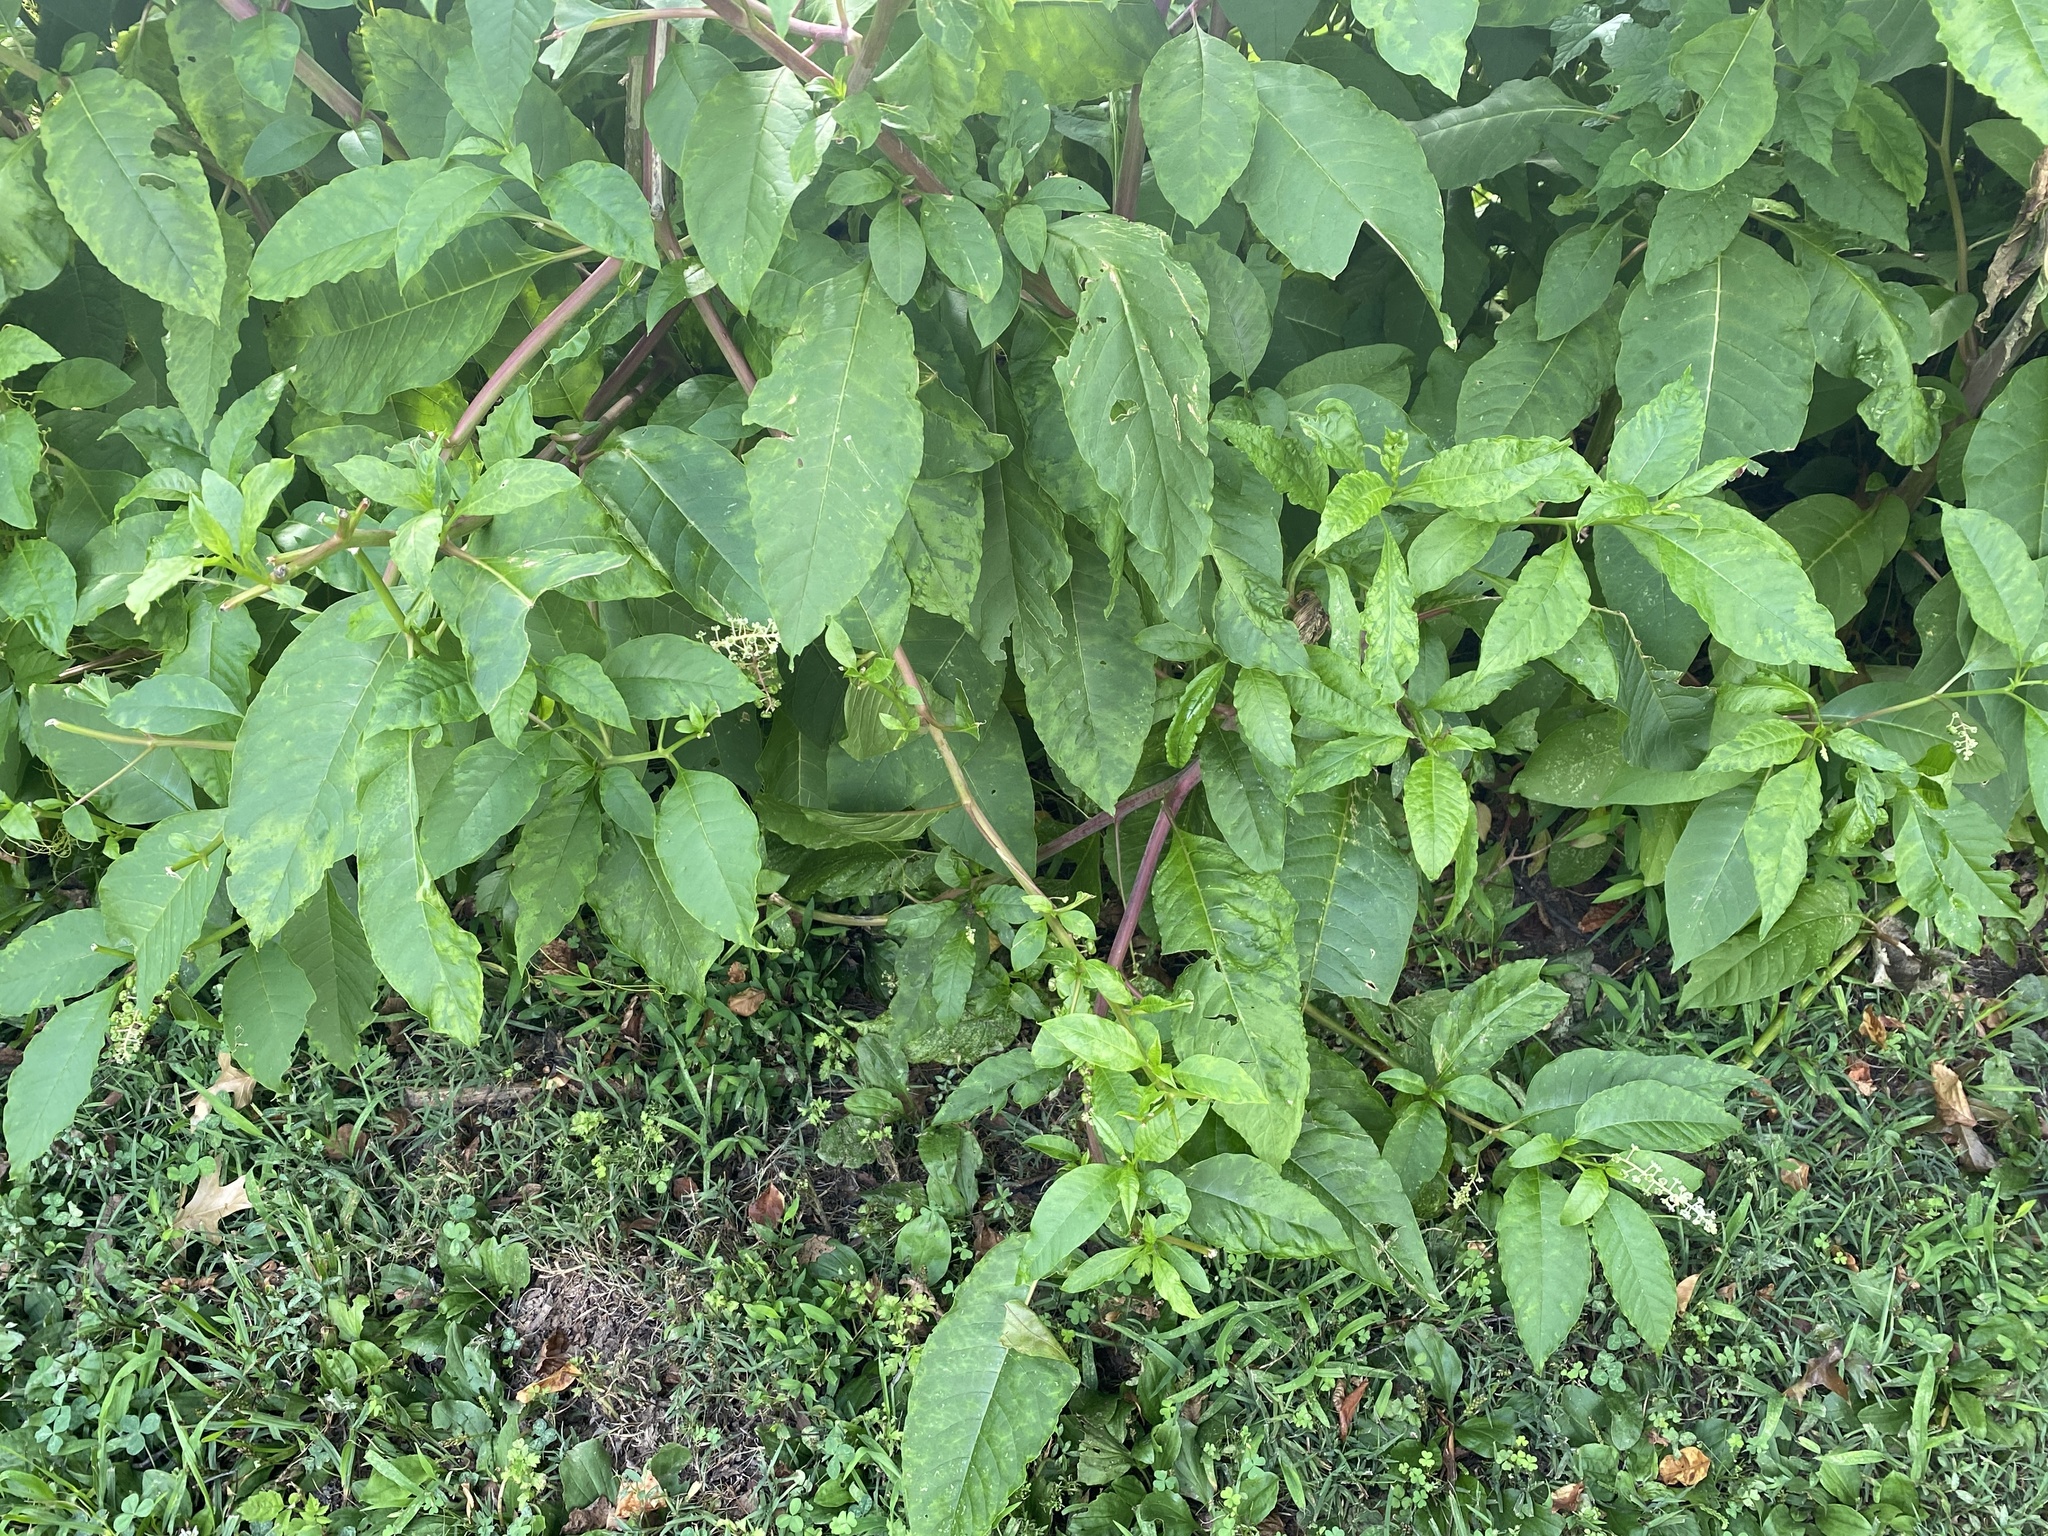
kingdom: Viruses
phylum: Pisuviricota
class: Stelpaviricetes
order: Patatavirales
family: Potyviridae
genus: Potyvirus
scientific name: Potyvirus Pokeweed mosaic virus
